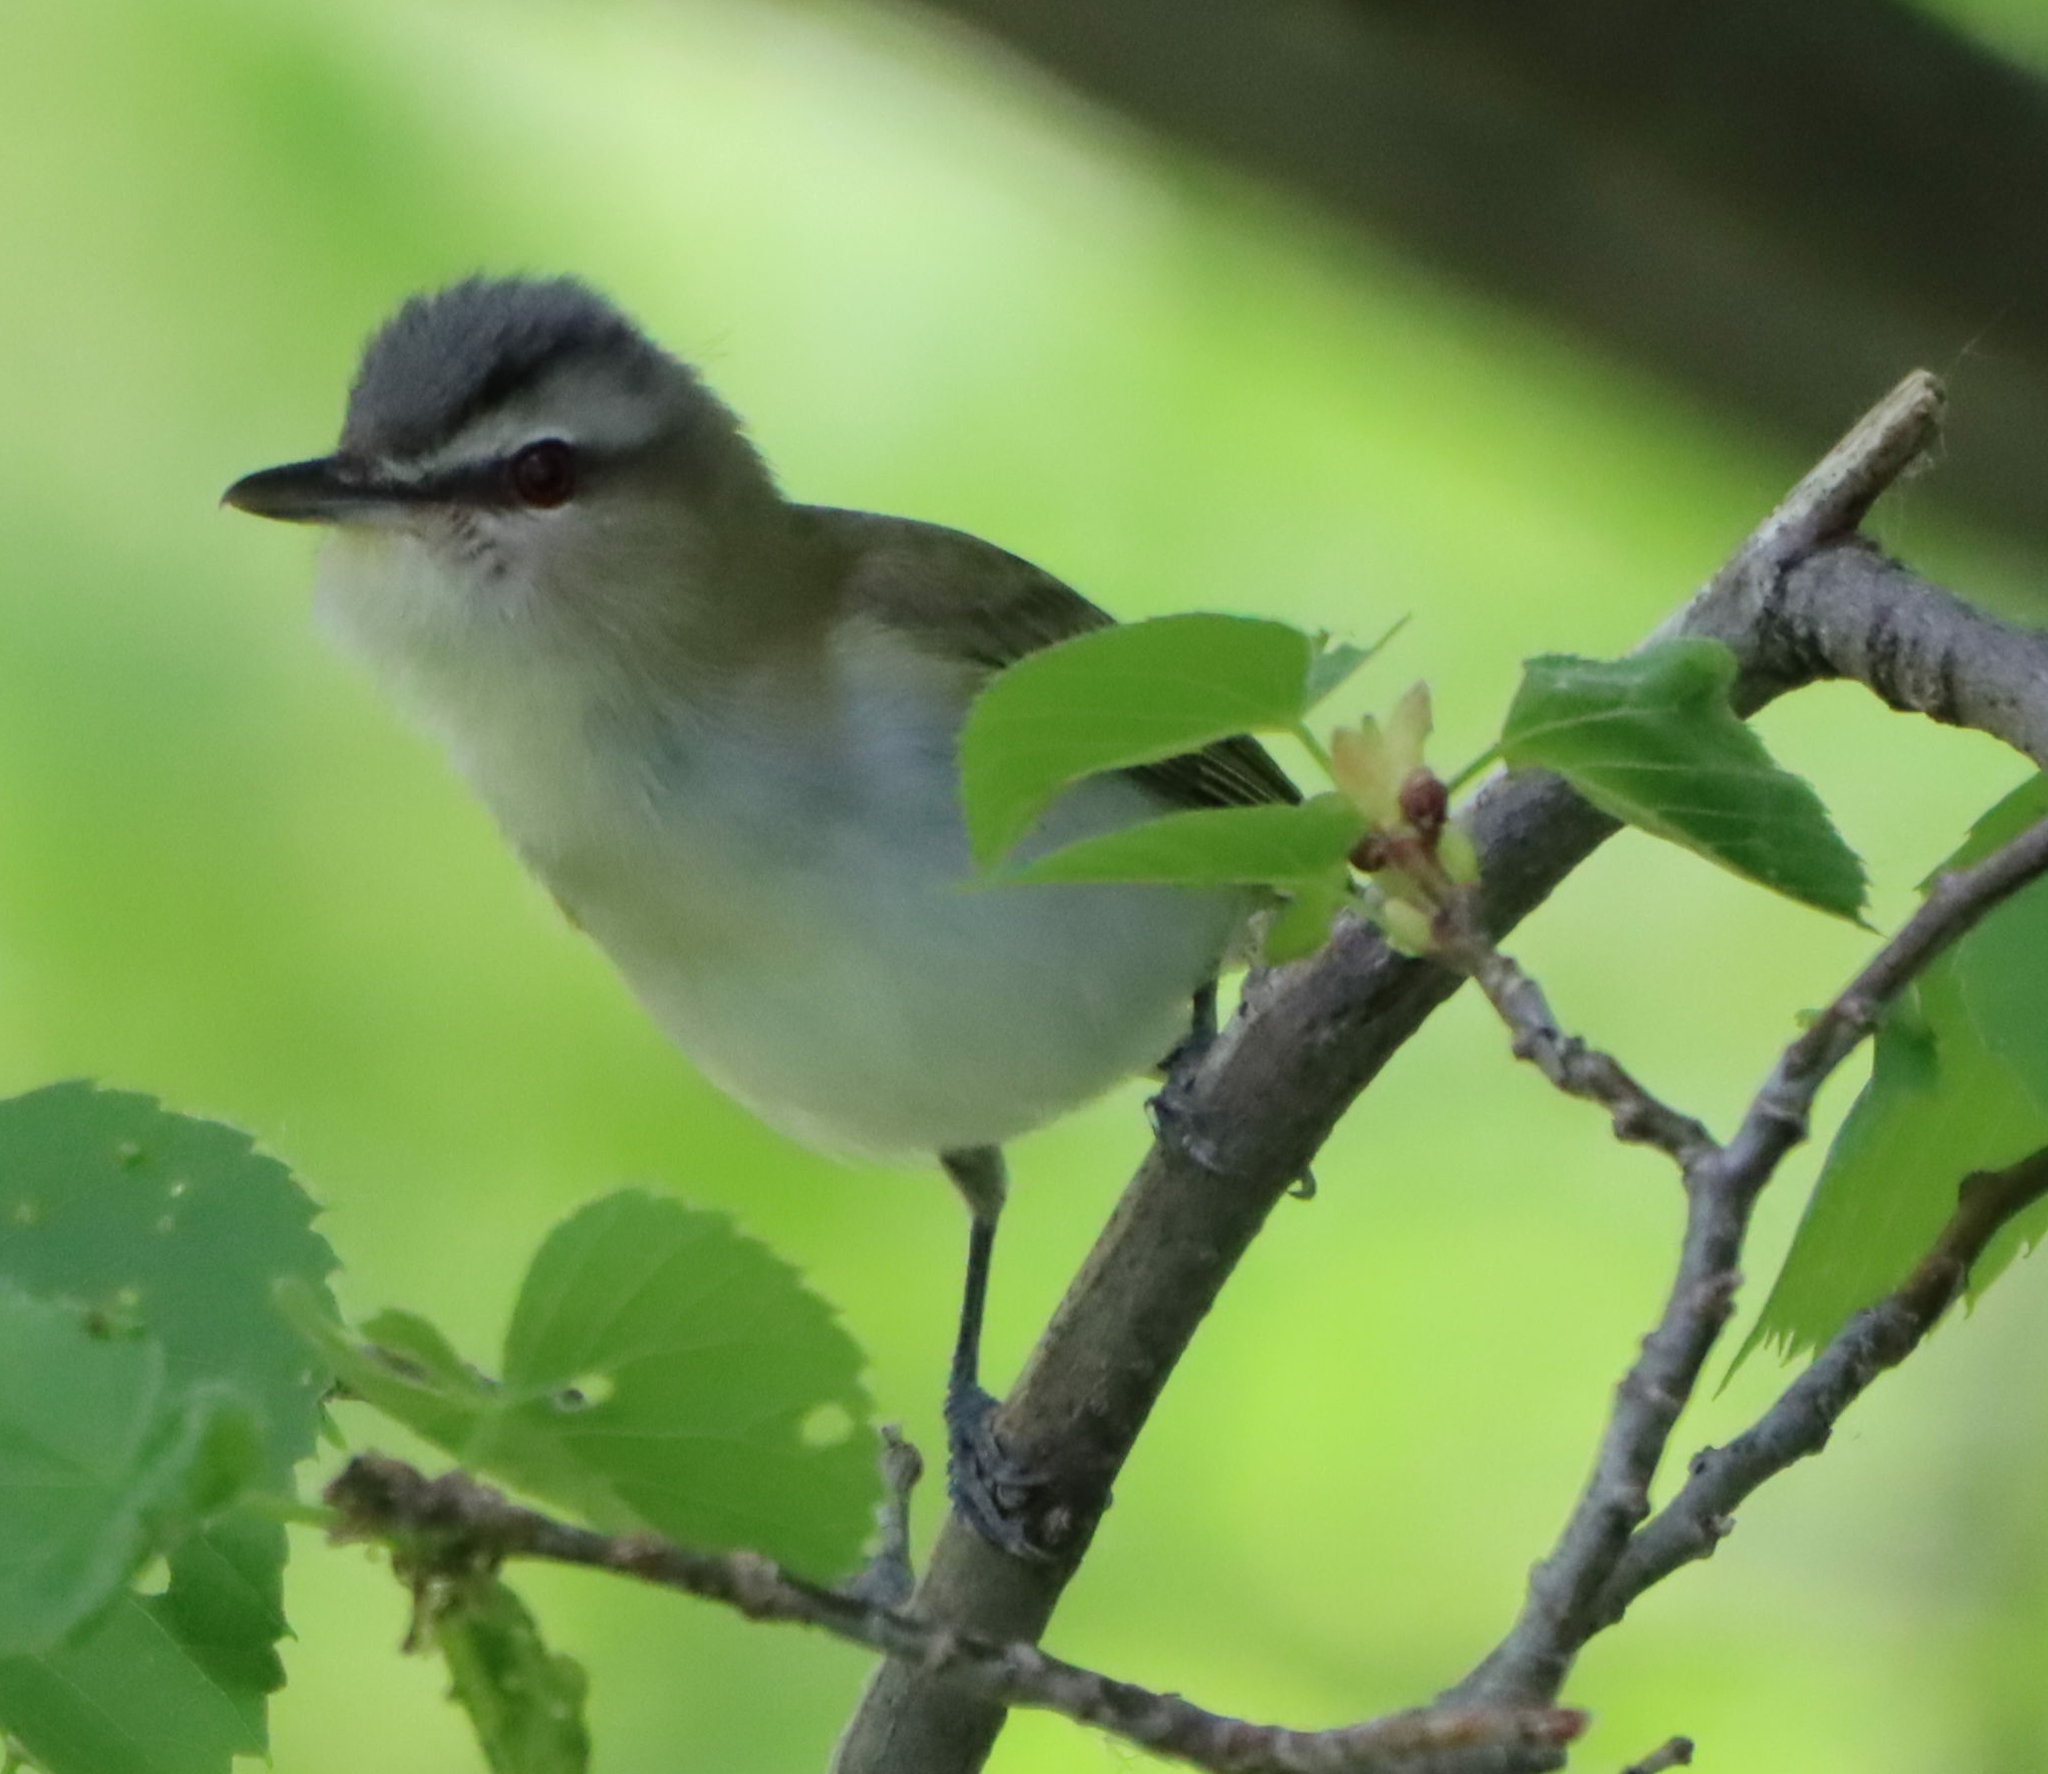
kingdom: Animalia
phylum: Chordata
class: Aves
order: Passeriformes
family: Vireonidae
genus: Vireo
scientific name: Vireo olivaceus
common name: Red-eyed vireo
